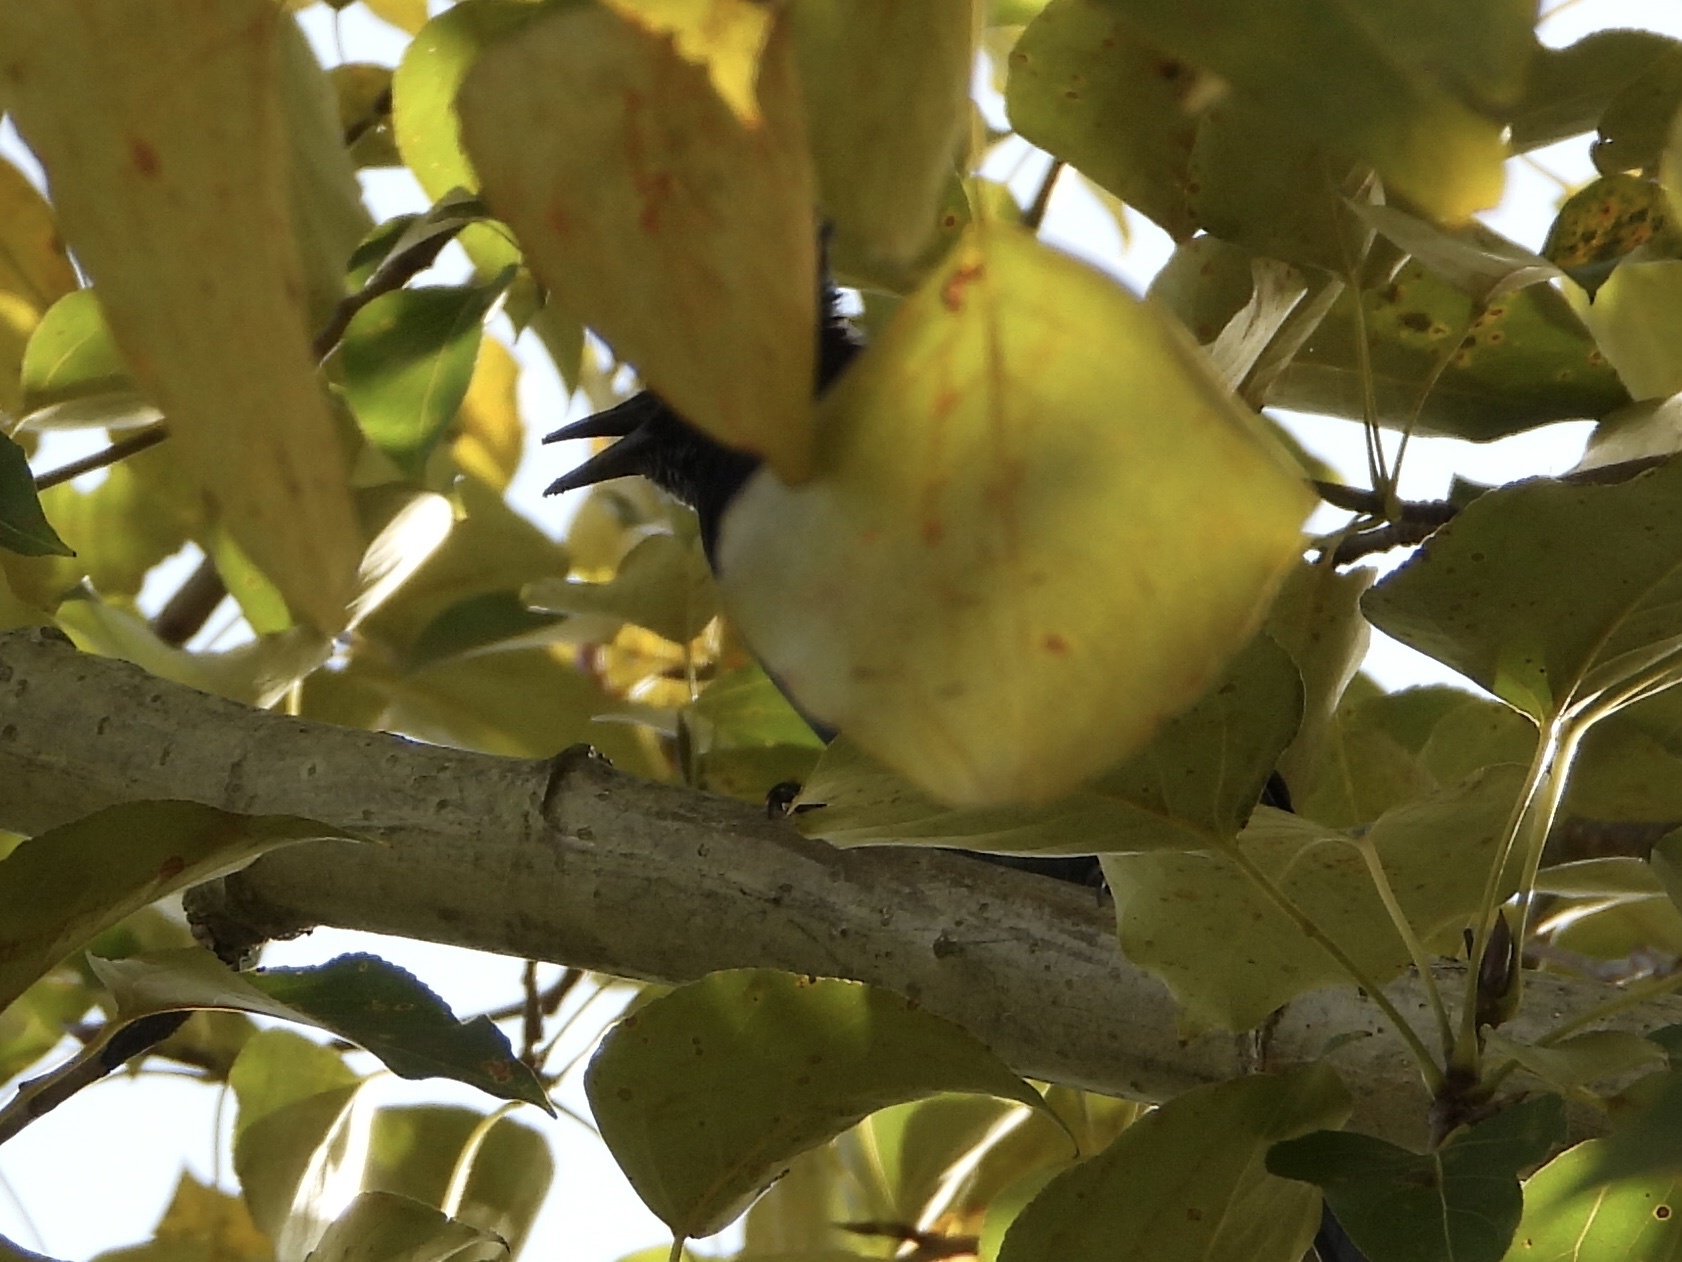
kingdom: Animalia
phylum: Chordata
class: Aves
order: Passeriformes
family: Corvidae
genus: Cyanocitta
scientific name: Cyanocitta stelleri
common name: Steller's jay
